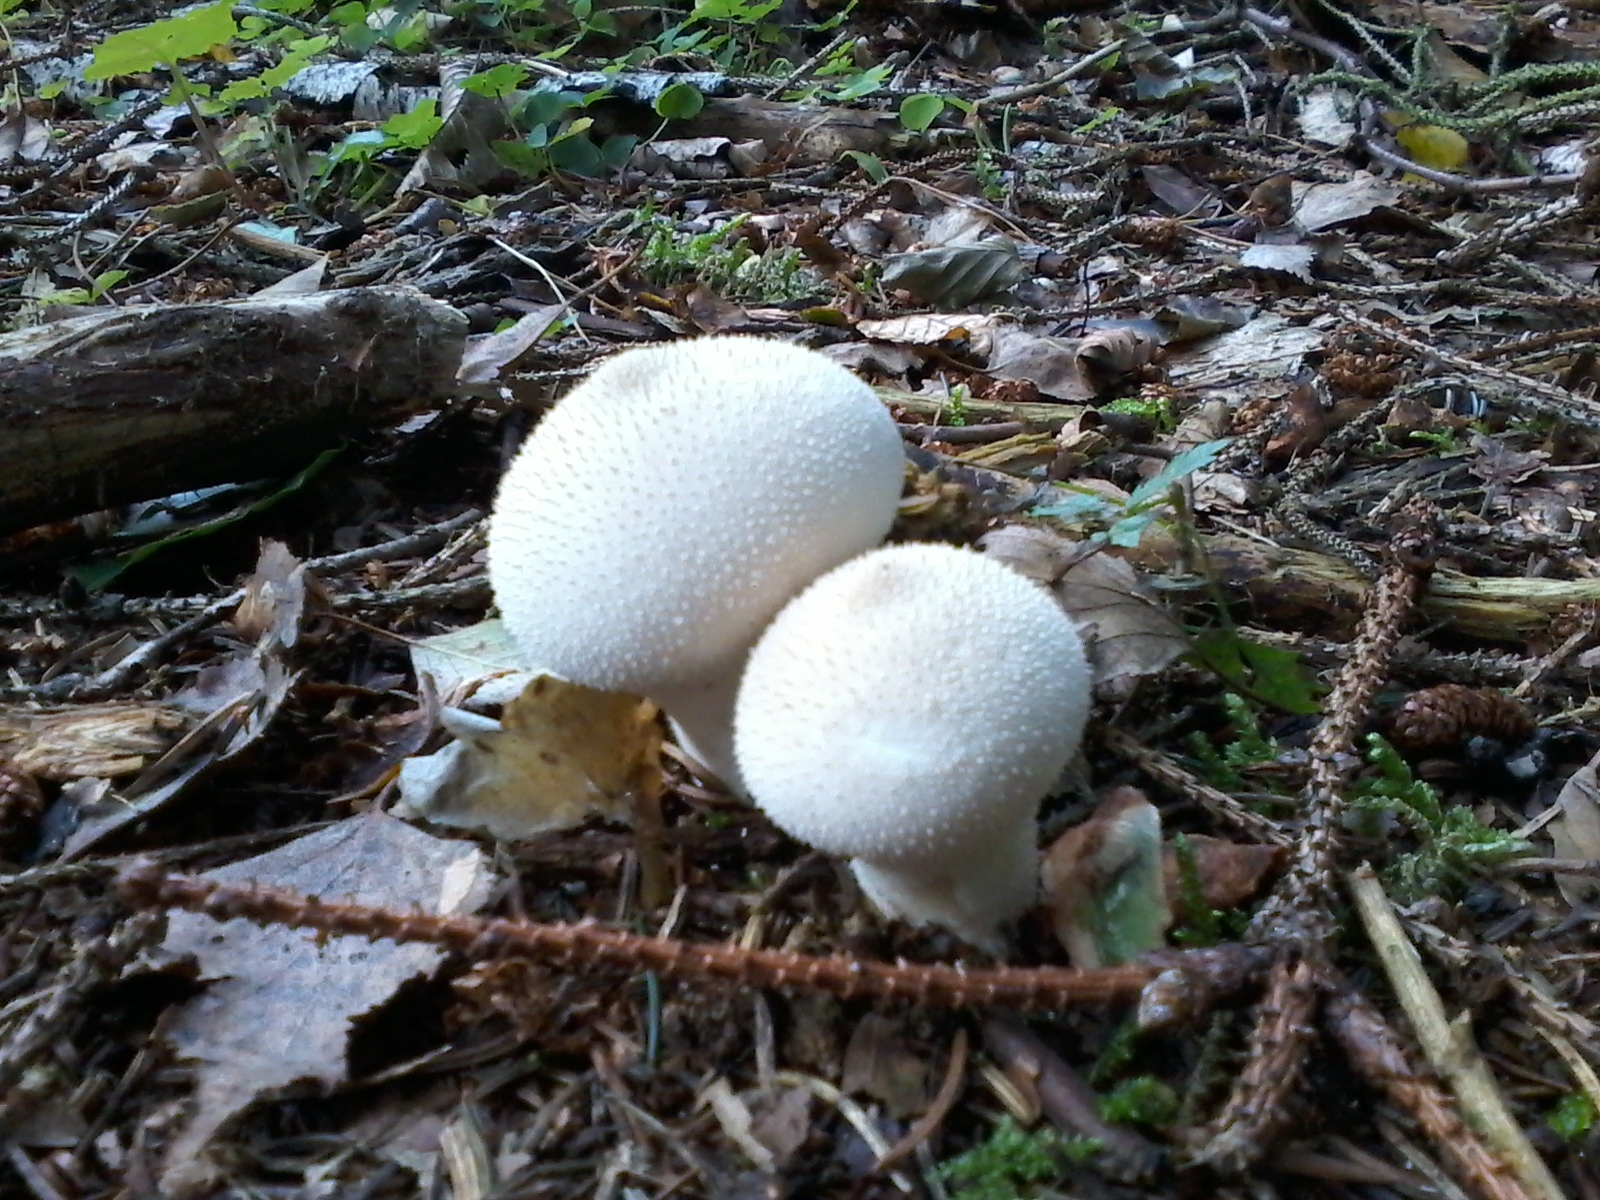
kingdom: Fungi
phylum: Basidiomycota
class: Agaricomycetes
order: Agaricales
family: Lycoperdaceae
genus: Lycoperdon
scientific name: Lycoperdon perlatum
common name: Common puffball
